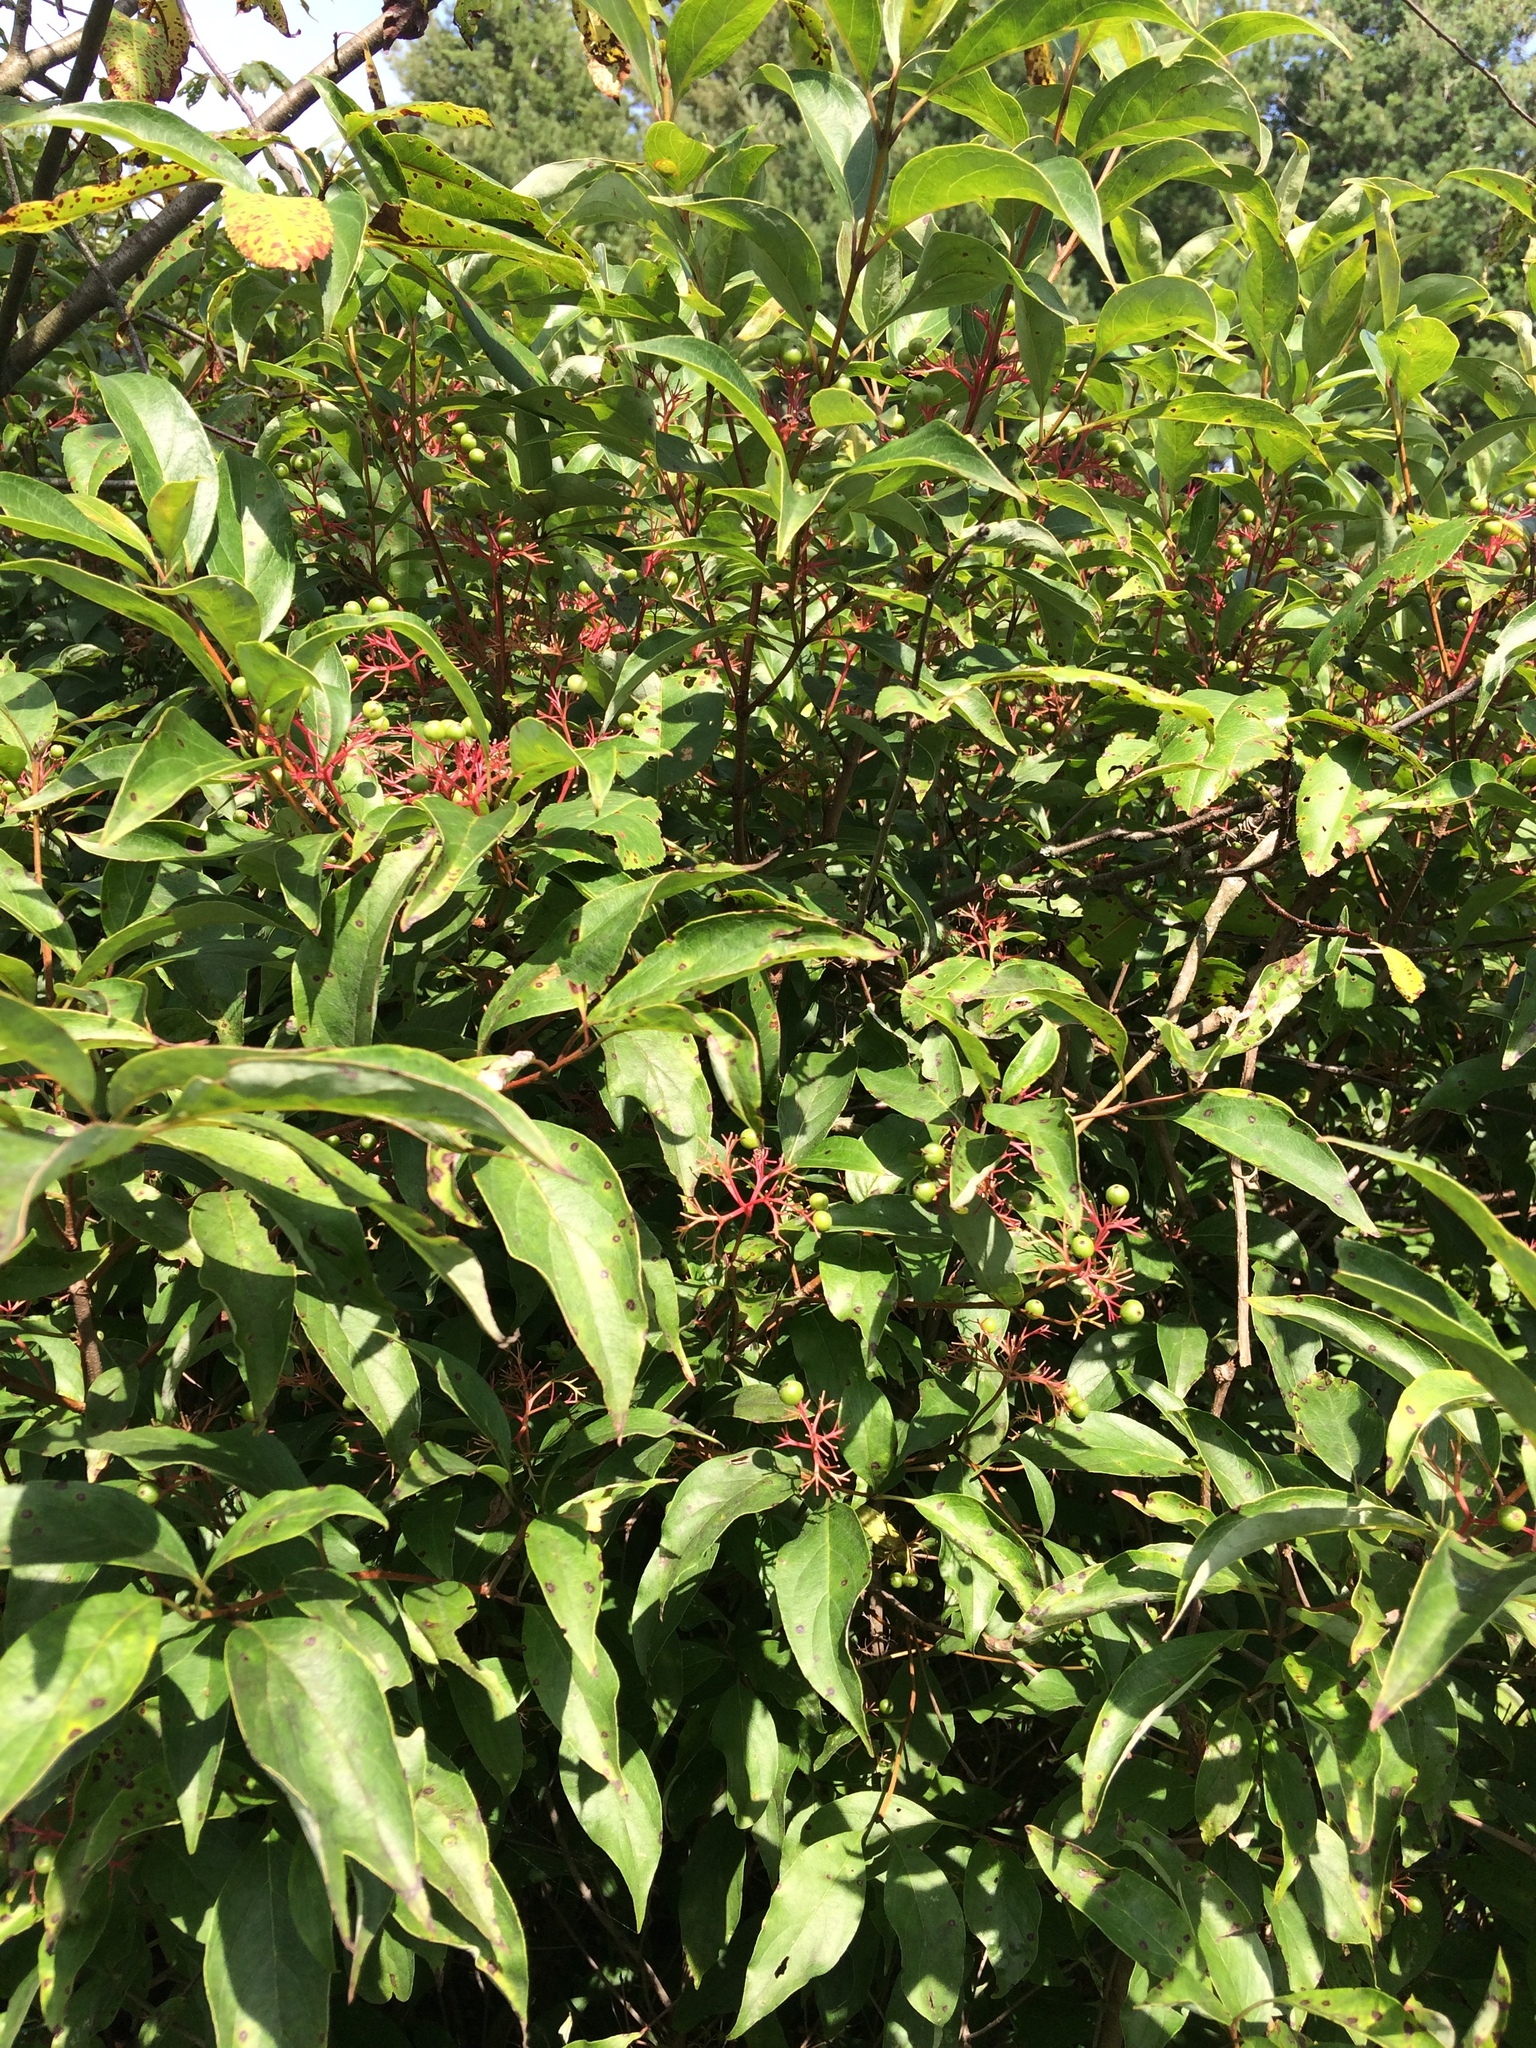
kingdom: Plantae
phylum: Tracheophyta
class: Magnoliopsida
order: Cornales
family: Cornaceae
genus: Cornus
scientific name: Cornus racemosa
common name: Panicled dogwood
